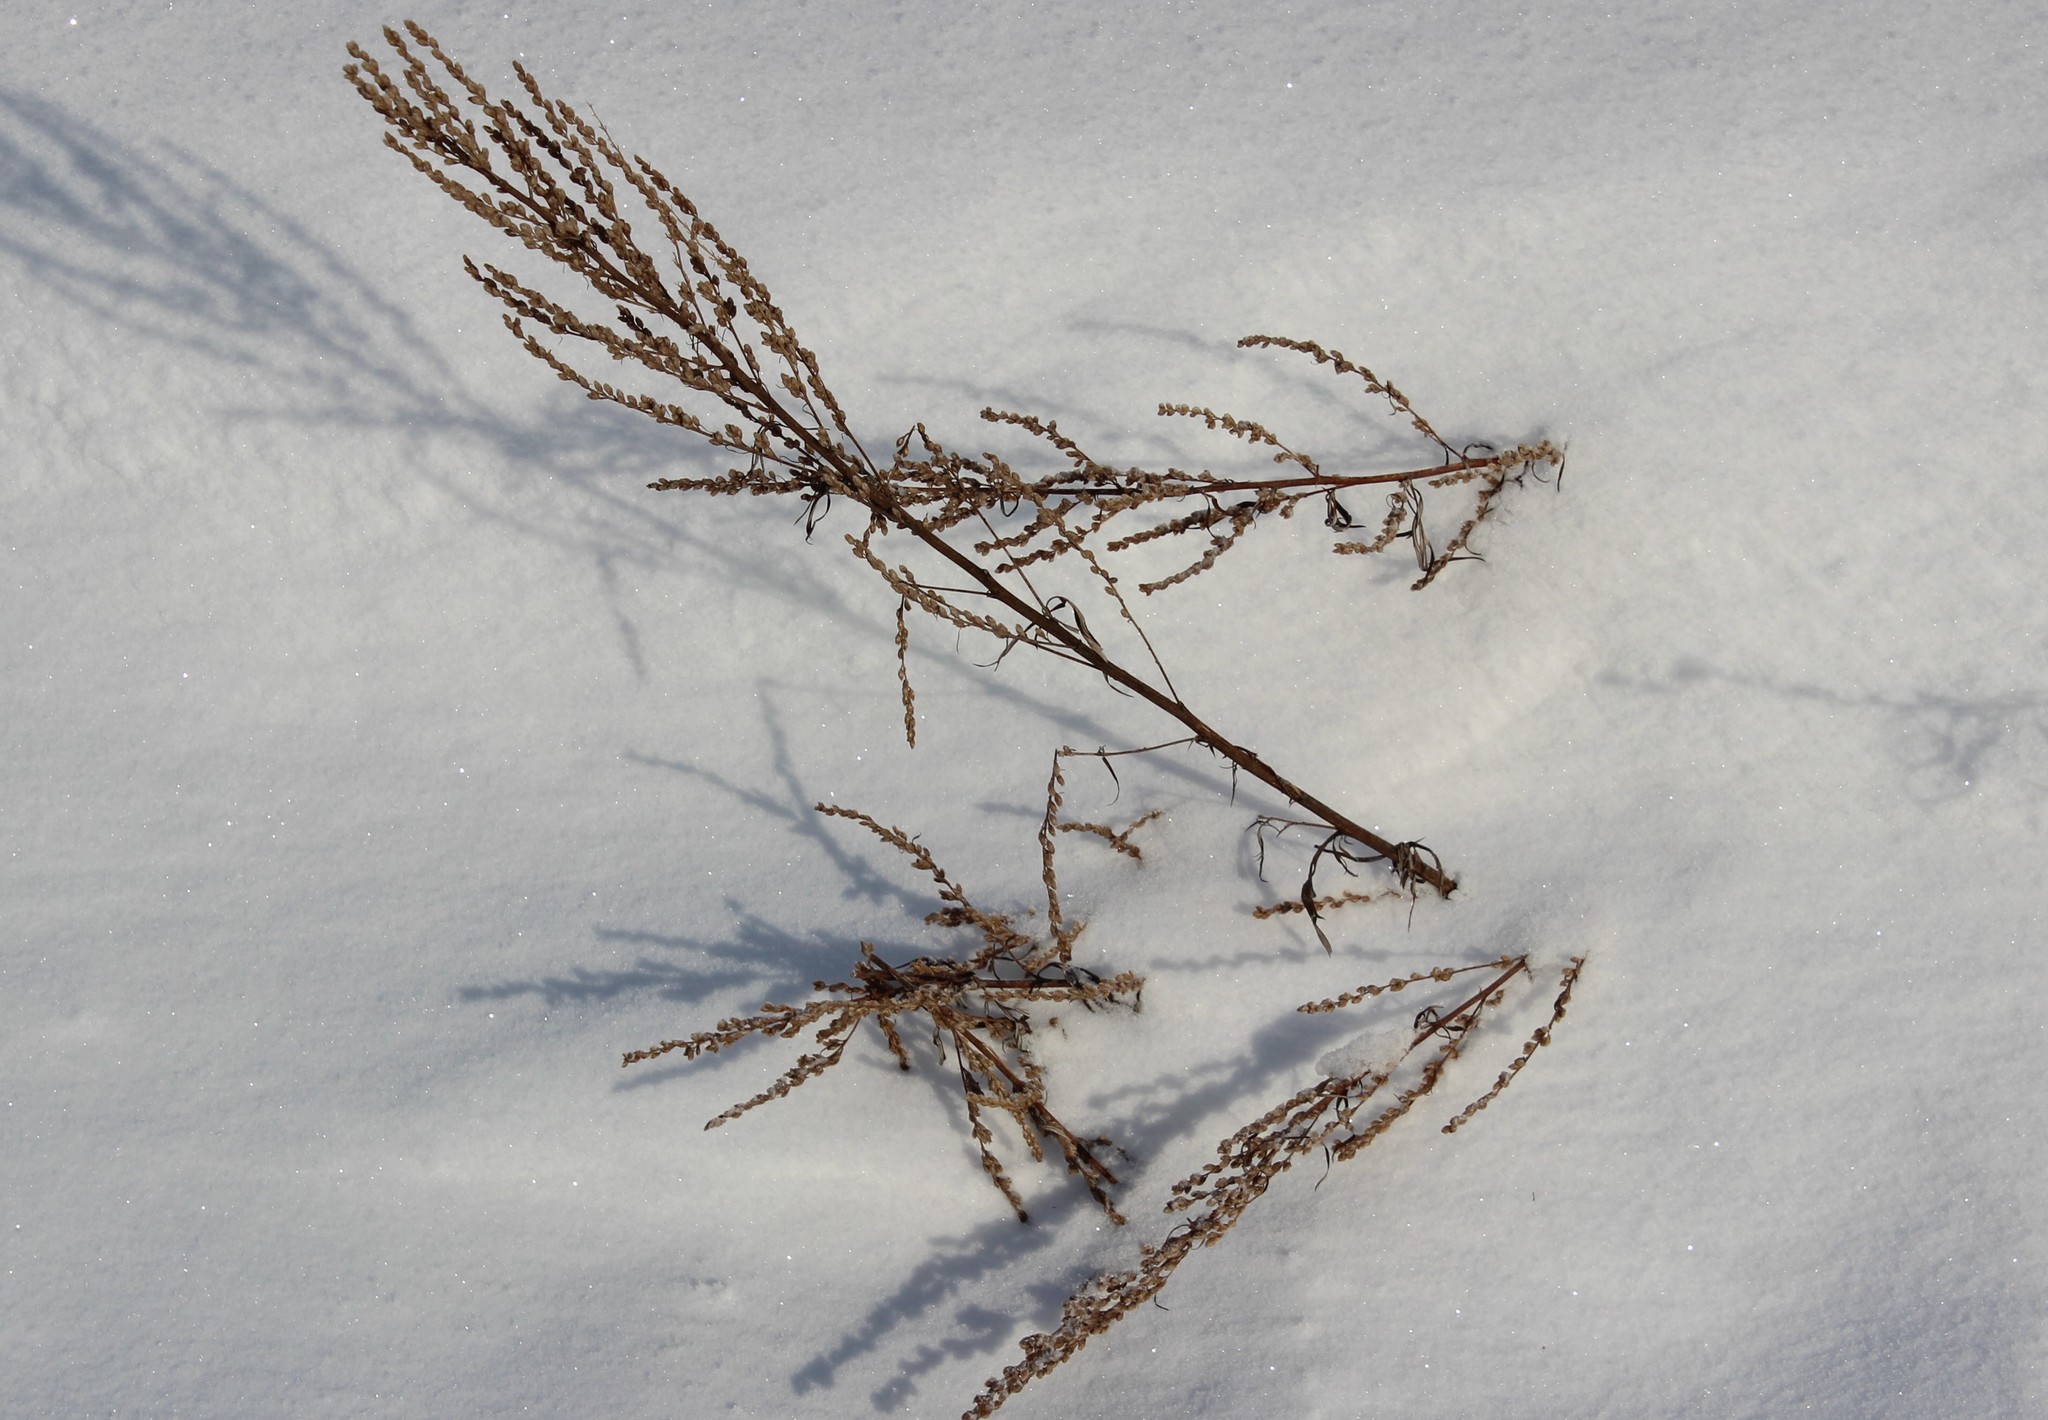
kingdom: Plantae
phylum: Tracheophyta
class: Magnoliopsida
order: Asterales
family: Asteraceae
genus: Artemisia
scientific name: Artemisia vulgaris
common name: Mugwort
